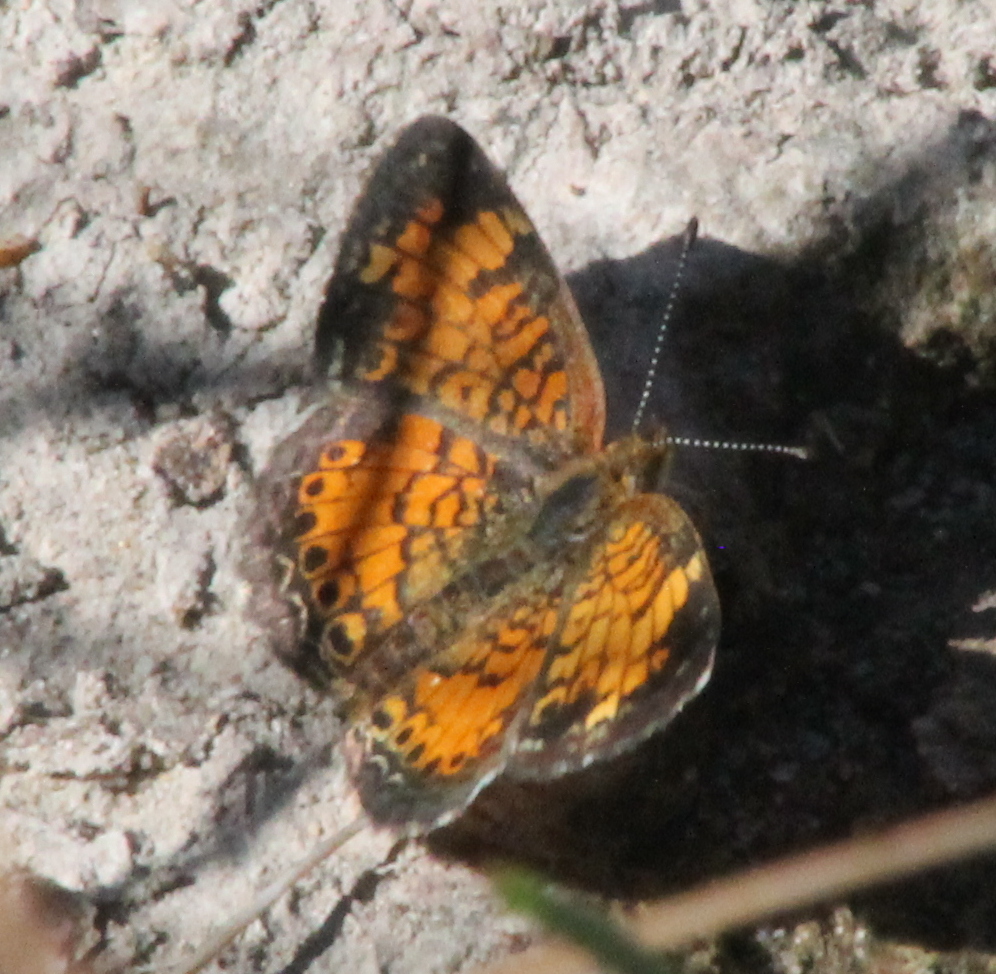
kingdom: Animalia
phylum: Arthropoda
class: Insecta
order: Lepidoptera
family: Nymphalidae
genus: Phyciodes
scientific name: Phyciodes tharos
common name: Pearl crescent
